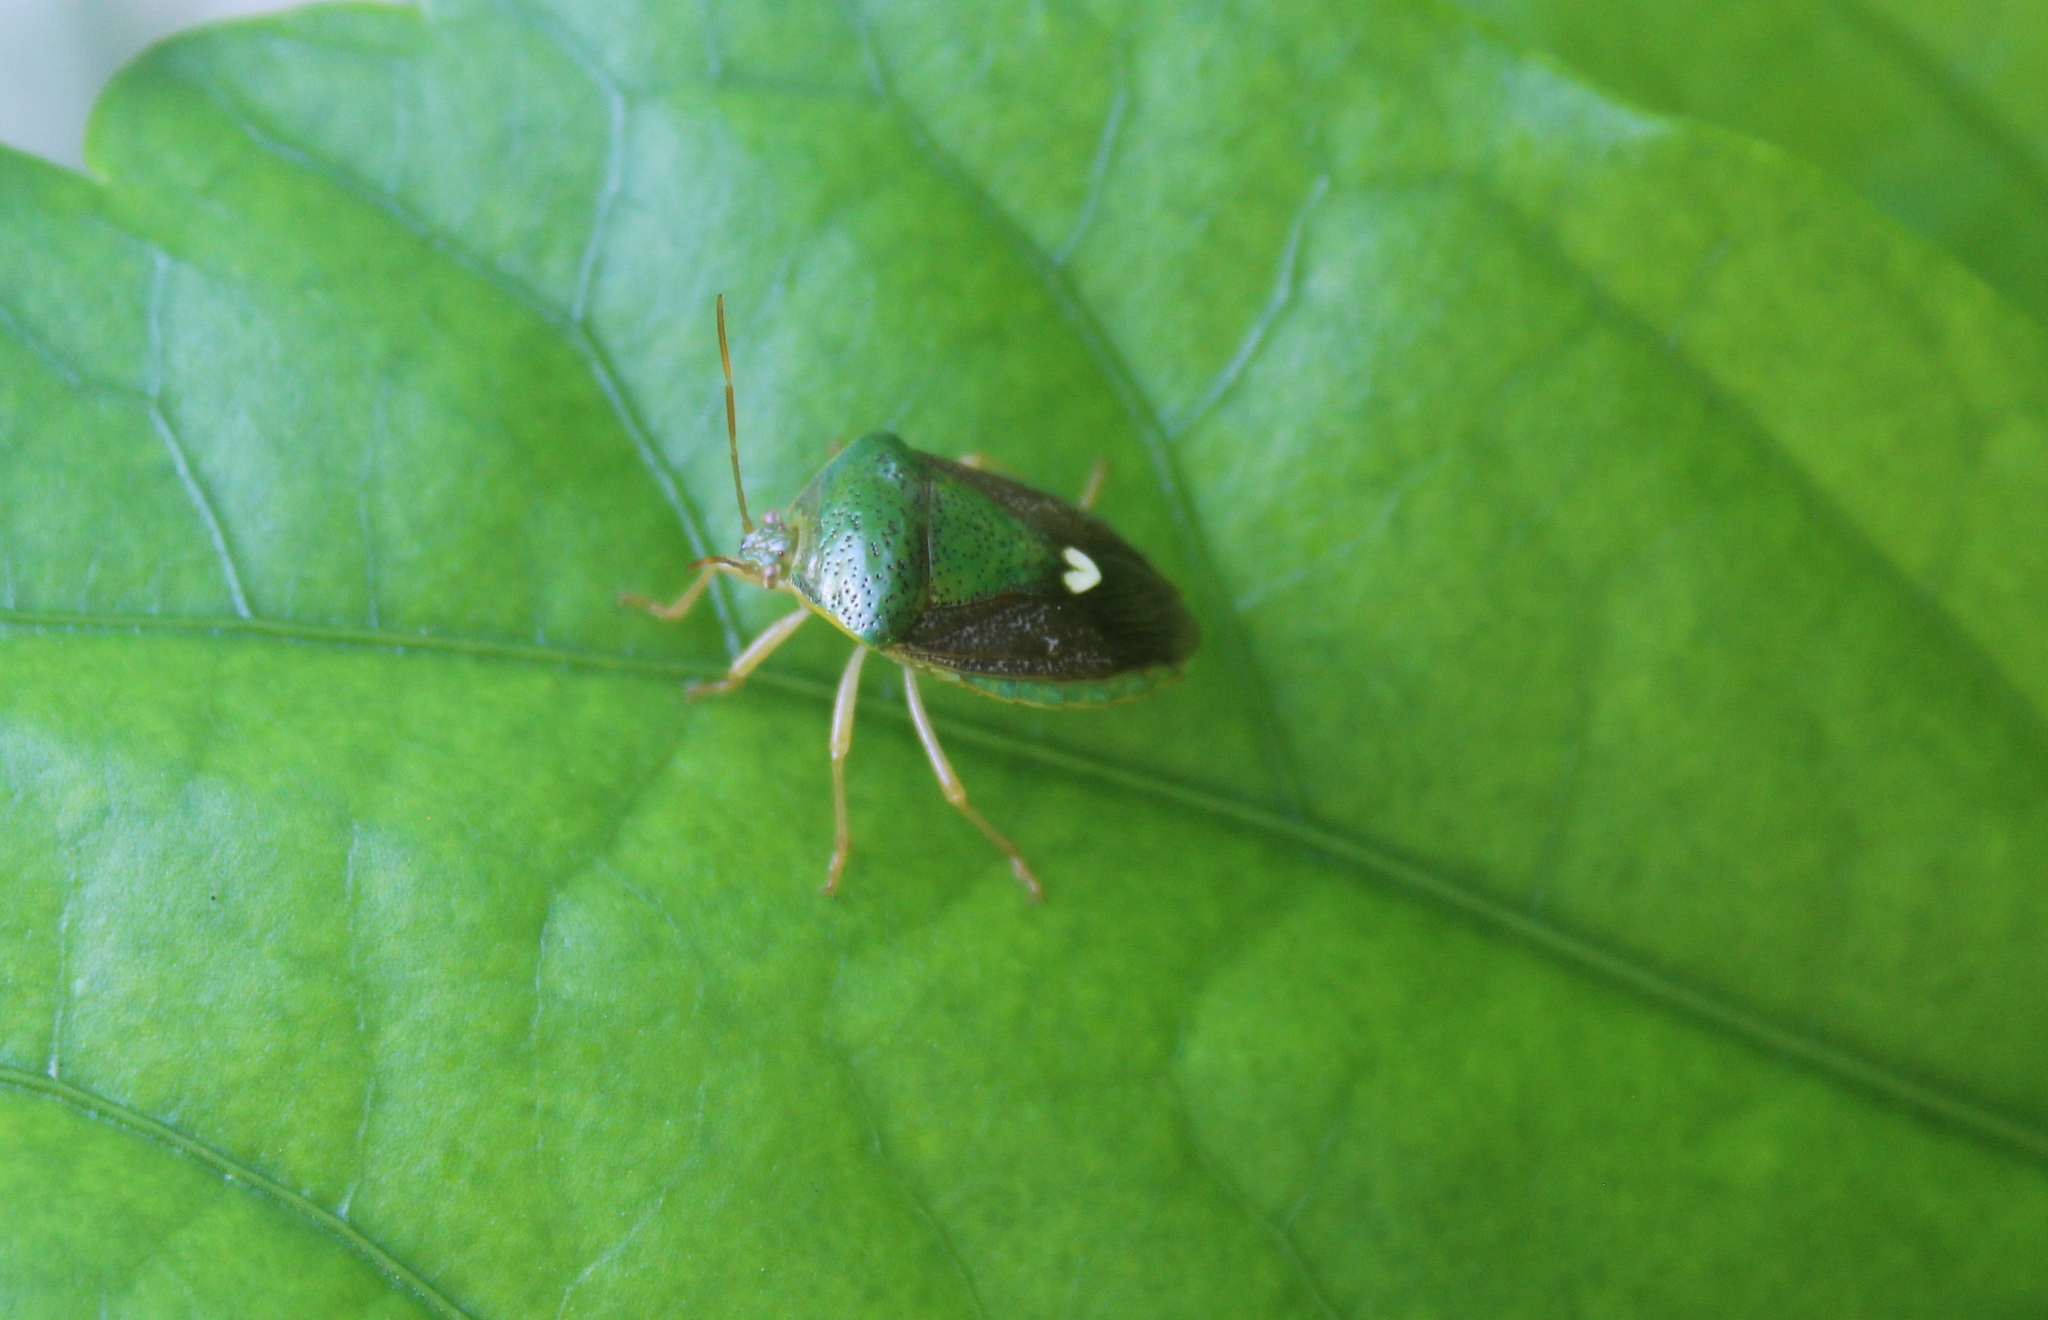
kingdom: Animalia
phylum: Arthropoda
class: Insecta
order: Hemiptera
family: Pentatomidae
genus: Edessa
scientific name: Edessa bifida
